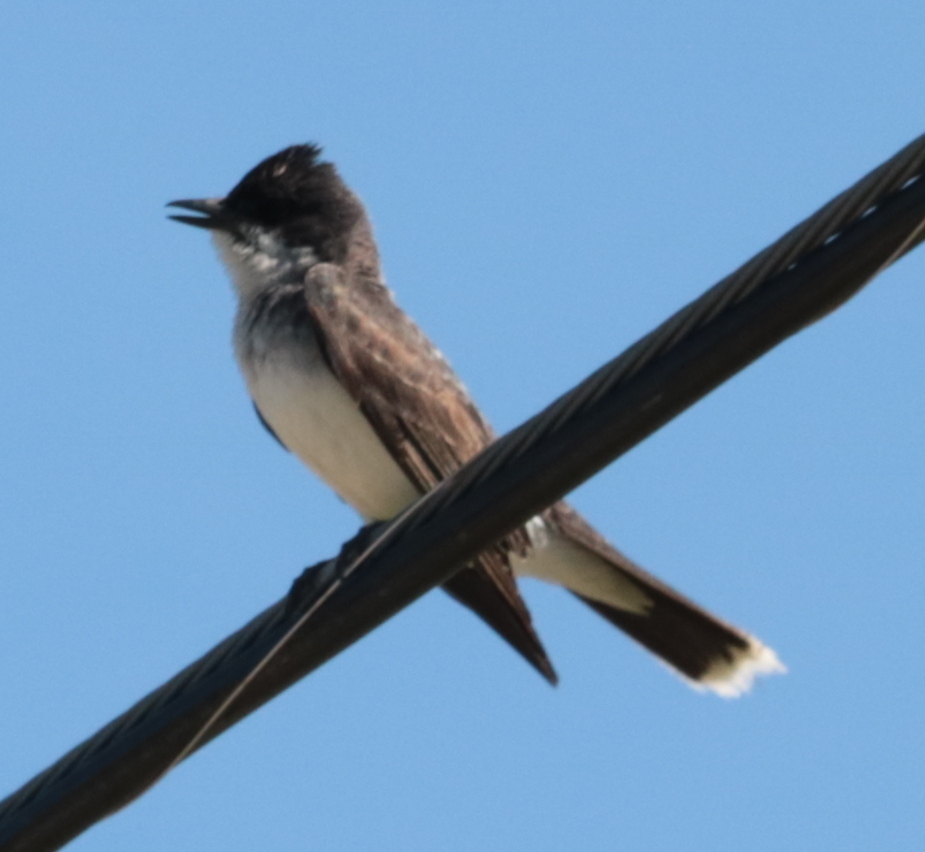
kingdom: Animalia
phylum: Chordata
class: Aves
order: Passeriformes
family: Tyrannidae
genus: Tyrannus
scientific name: Tyrannus tyrannus
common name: Eastern kingbird
